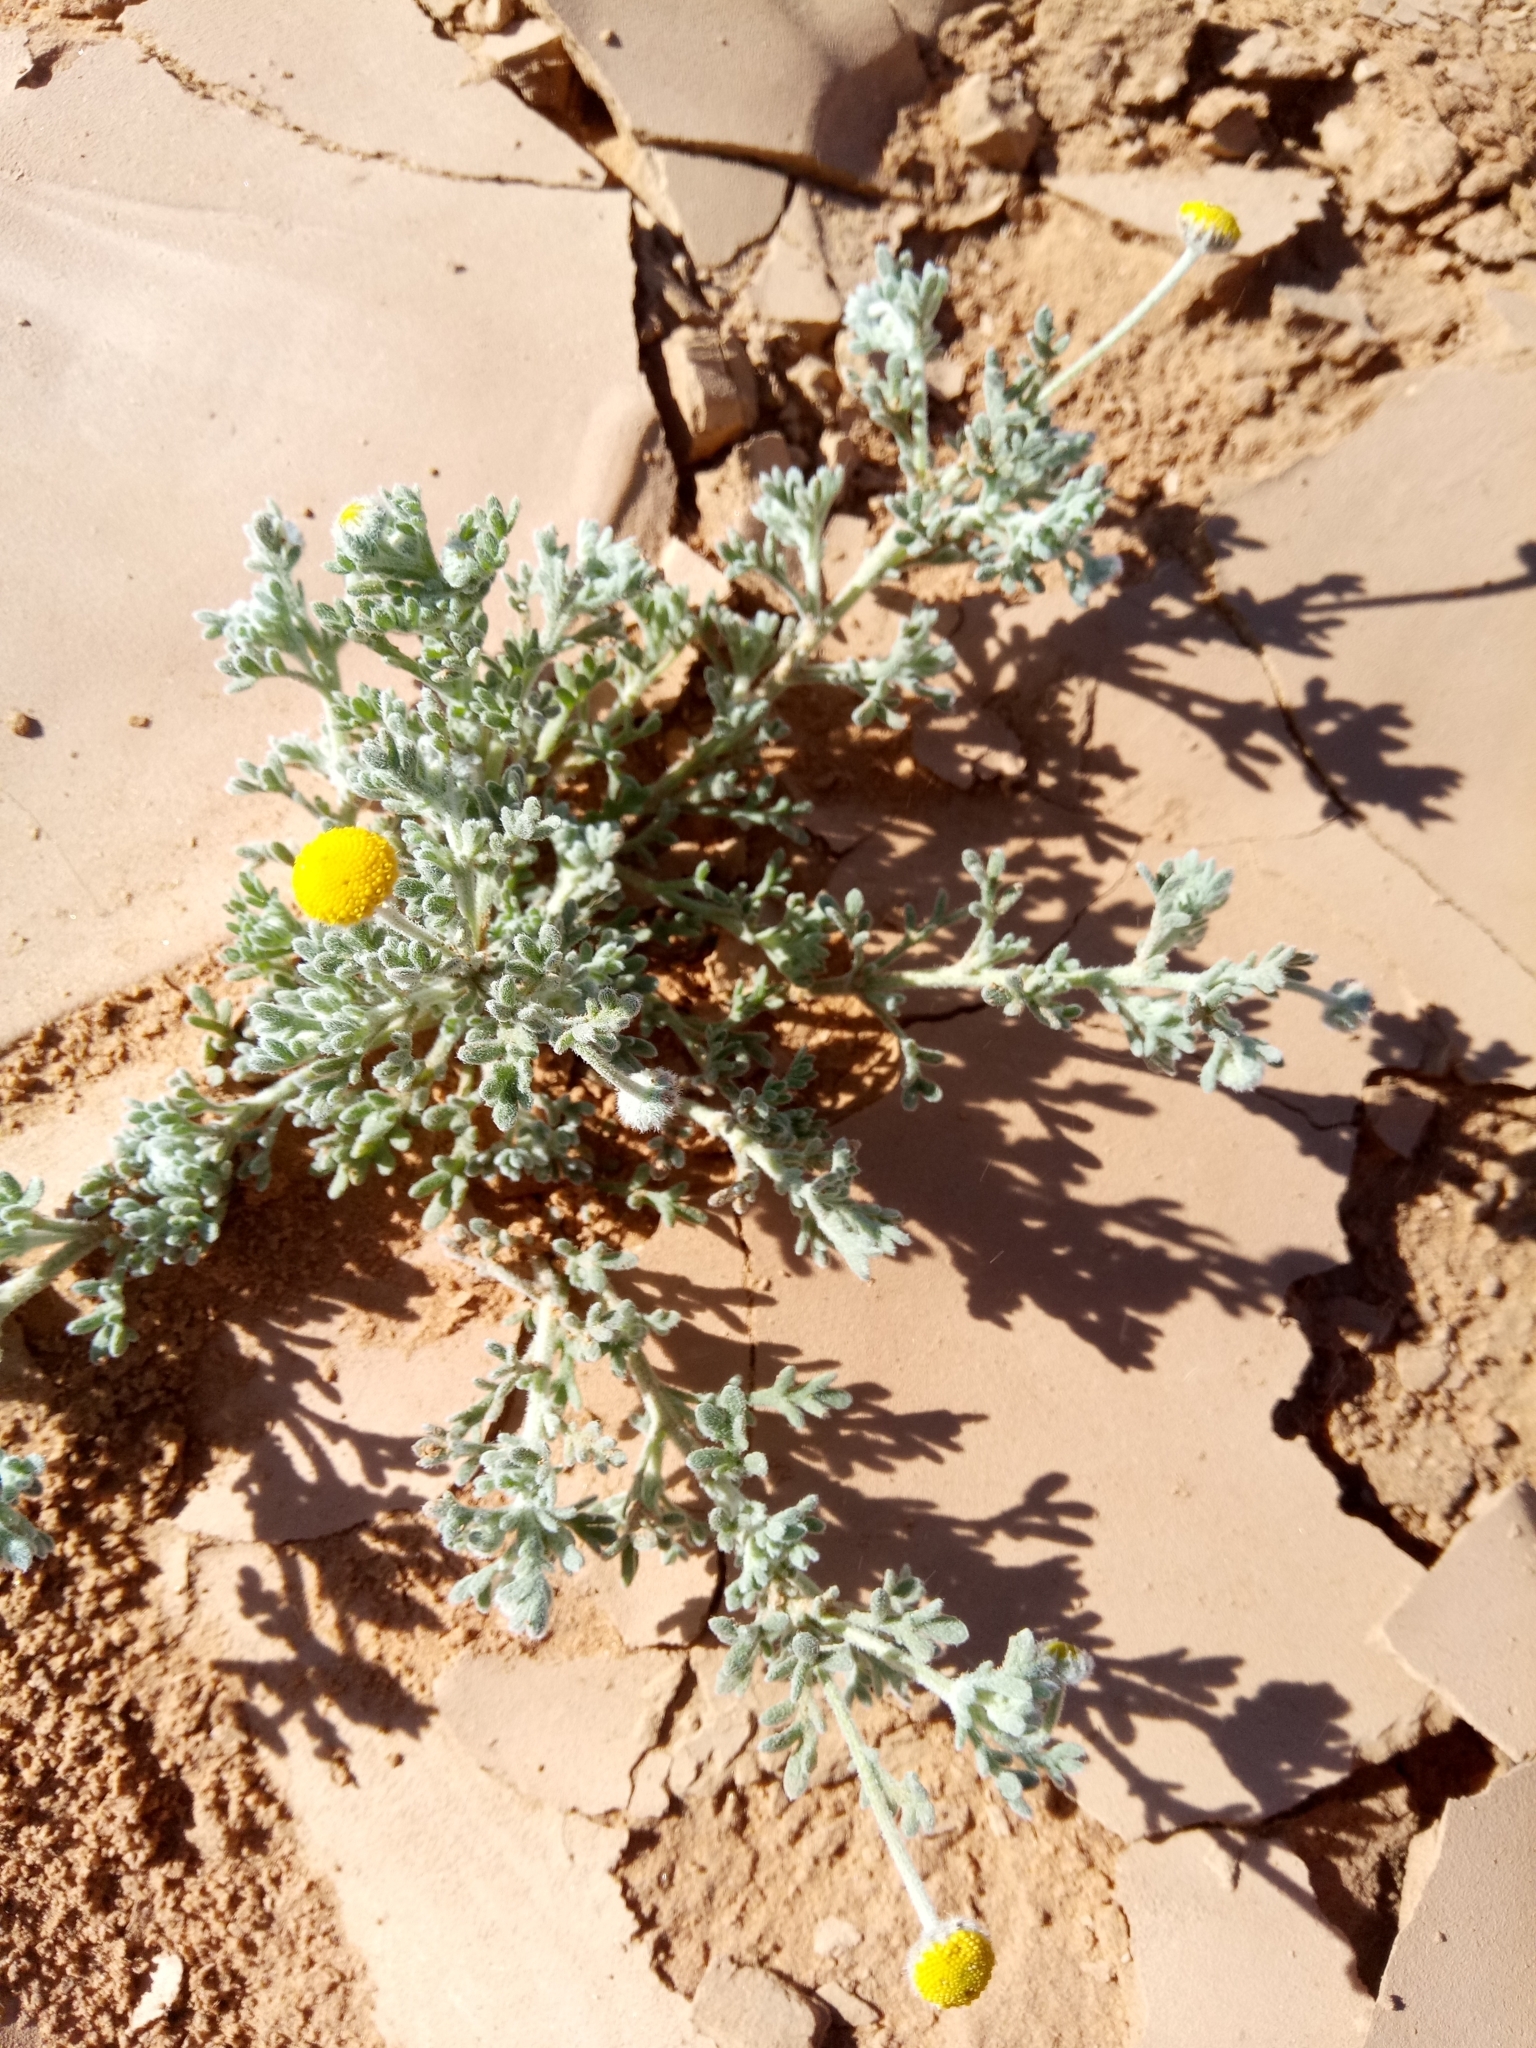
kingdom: Plantae
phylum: Tracheophyta
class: Magnoliopsida
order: Asterales
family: Asteraceae
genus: Brocchia
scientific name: Brocchia cinerea
